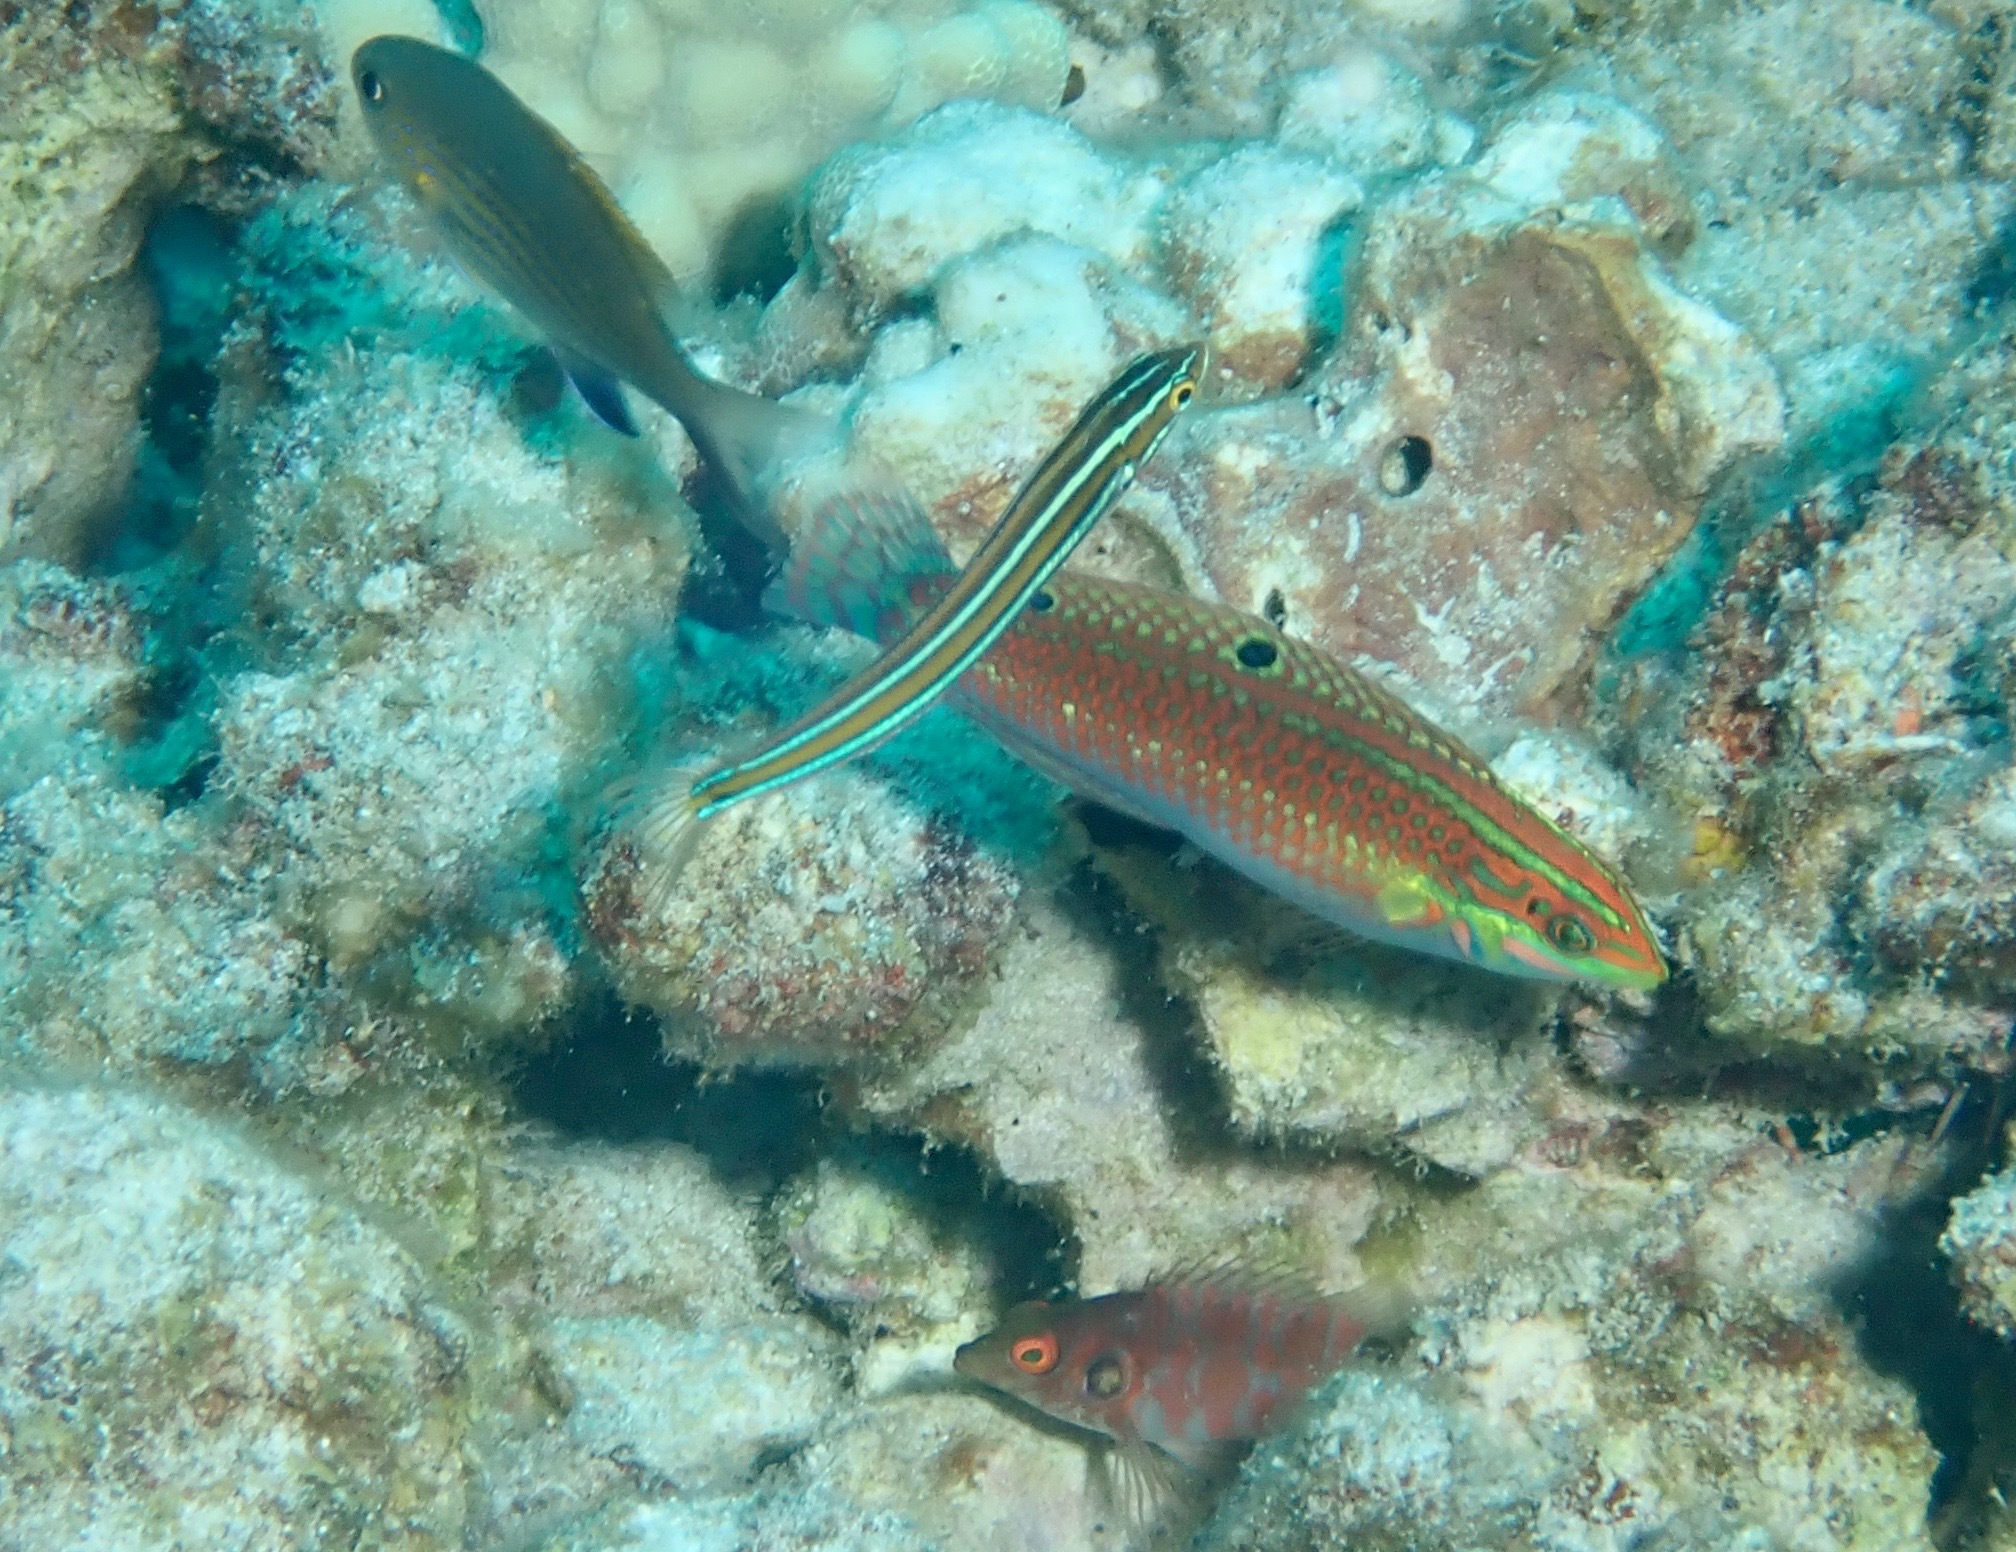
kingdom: Animalia
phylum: Chordata
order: Perciformes
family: Cirrhitidae
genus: Amblycirrhitus
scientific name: Amblycirrhitus bimacula
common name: Twinspot hawkfish
